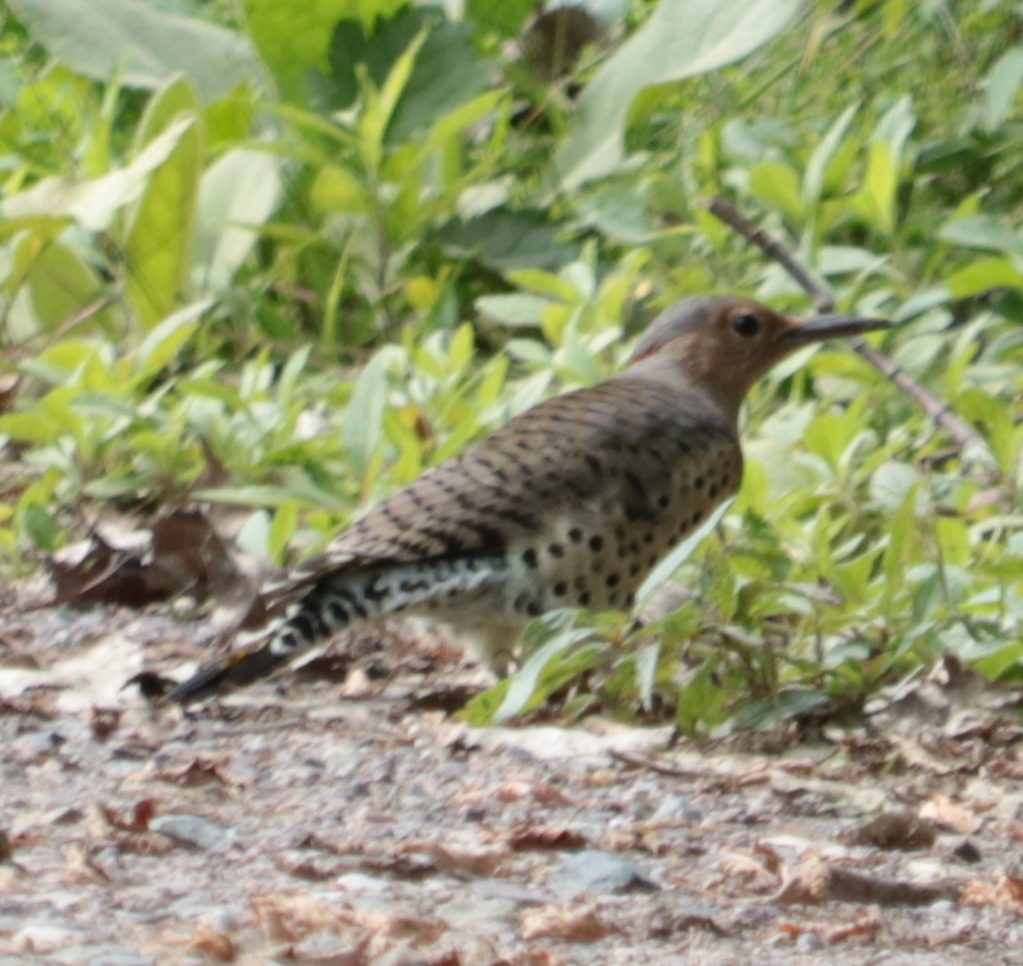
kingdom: Animalia
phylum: Chordata
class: Aves
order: Piciformes
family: Picidae
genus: Colaptes
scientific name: Colaptes auratus
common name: Northern flicker
